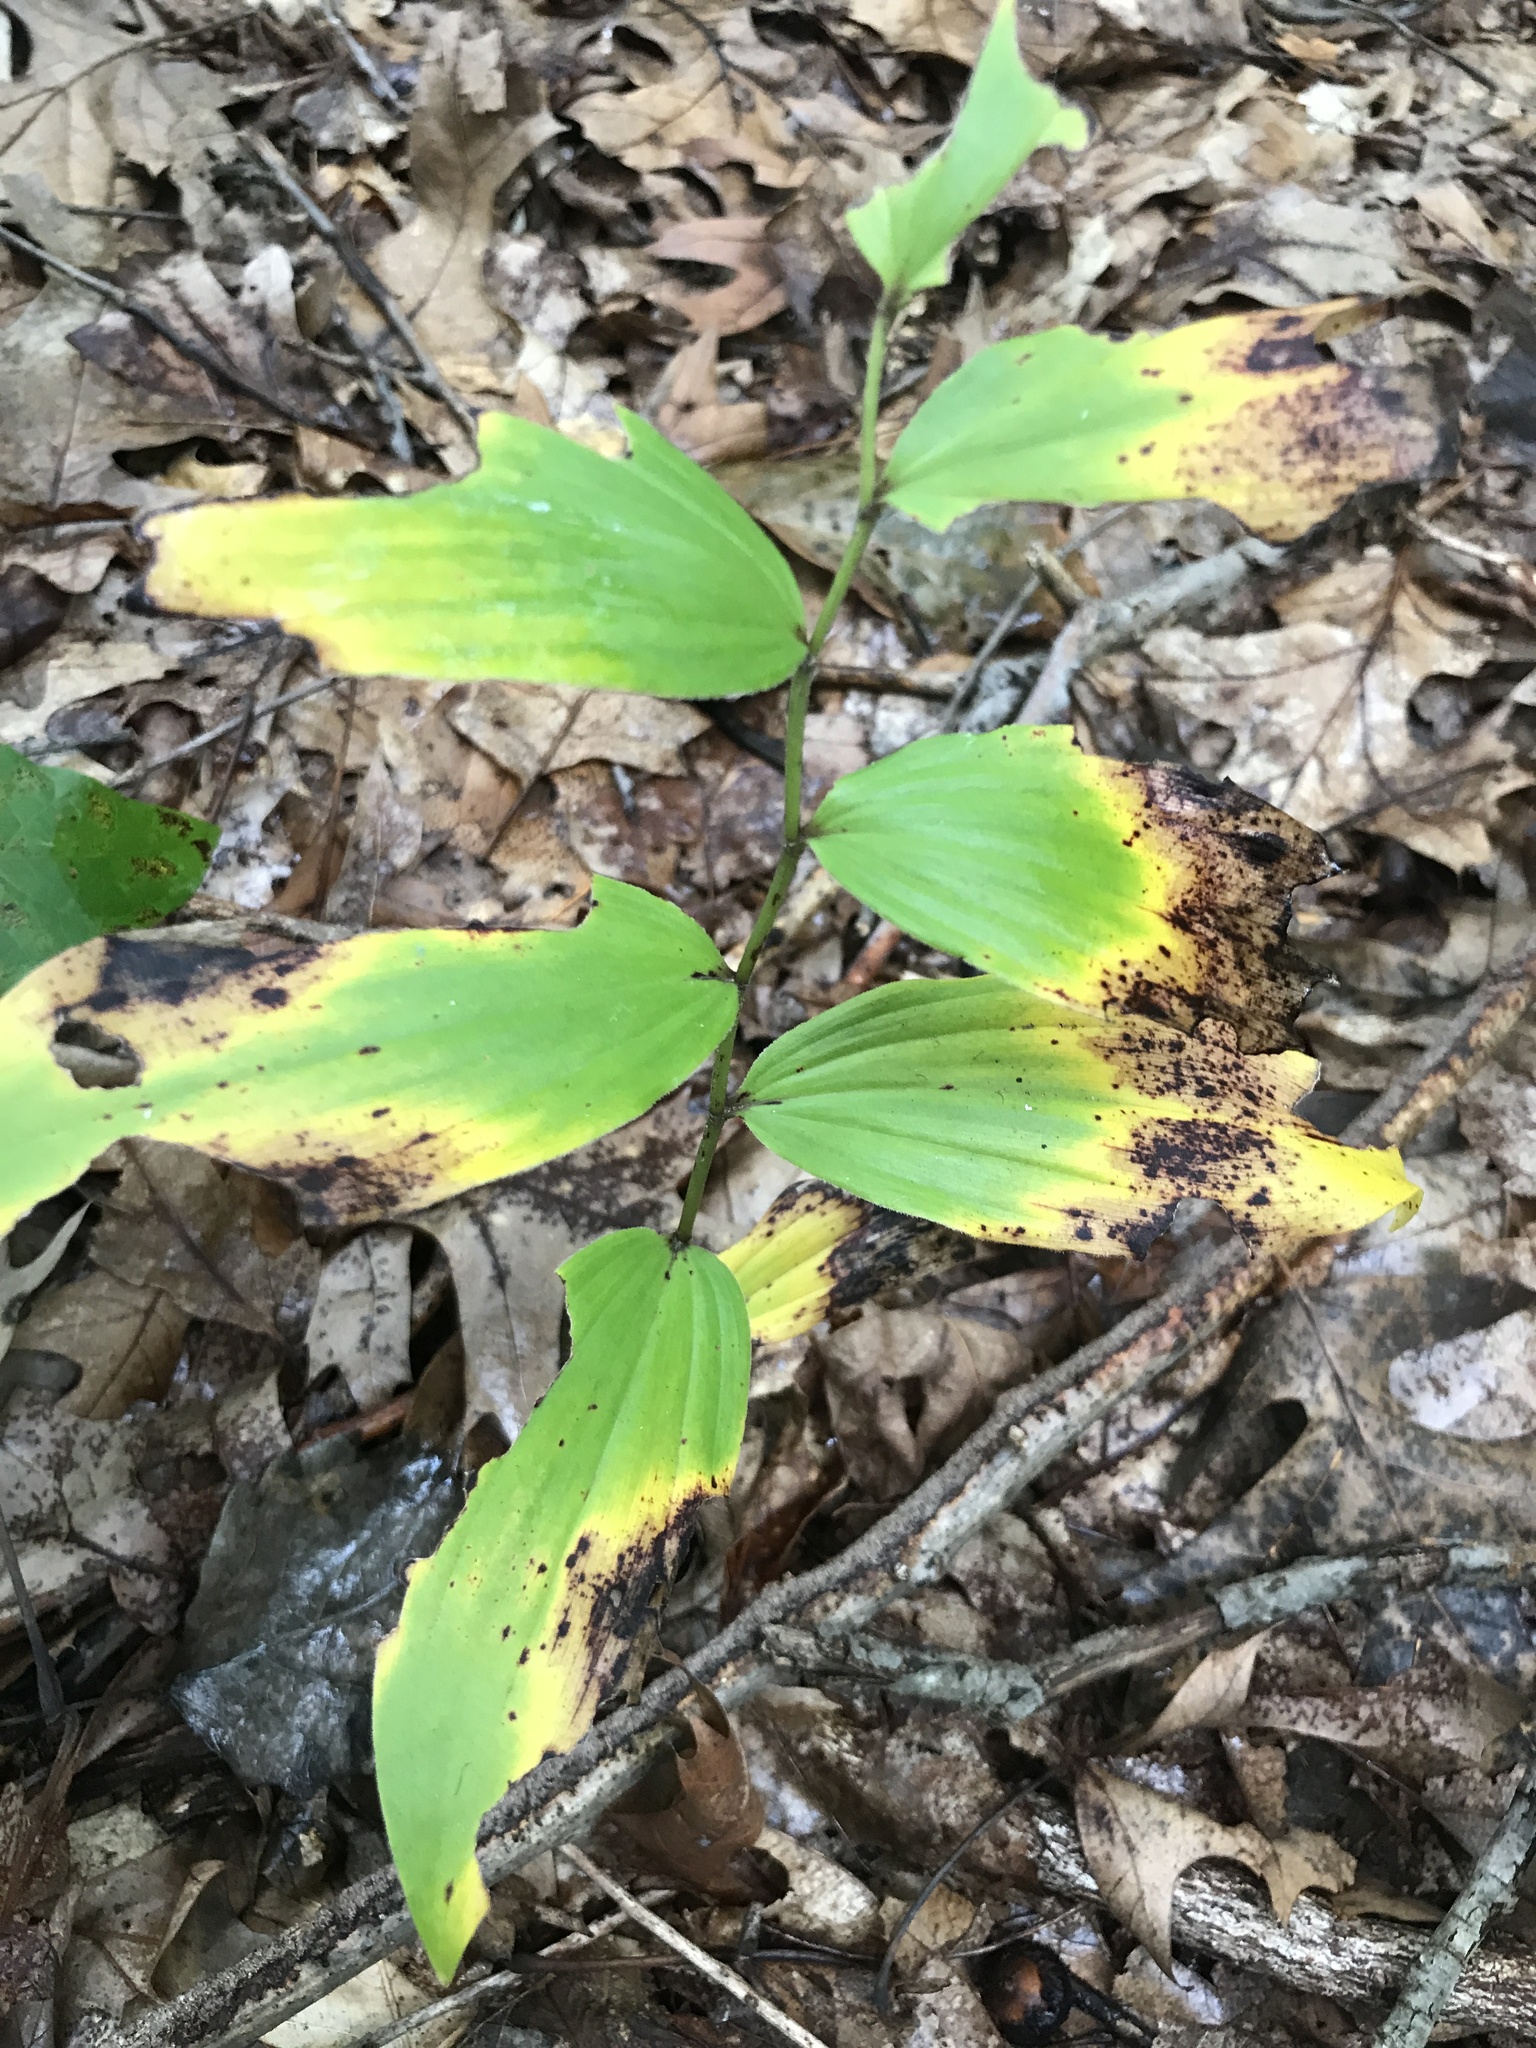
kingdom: Plantae
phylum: Tracheophyta
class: Liliopsida
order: Asparagales
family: Asparagaceae
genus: Maianthemum
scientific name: Maianthemum racemosum
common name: False spikenard
